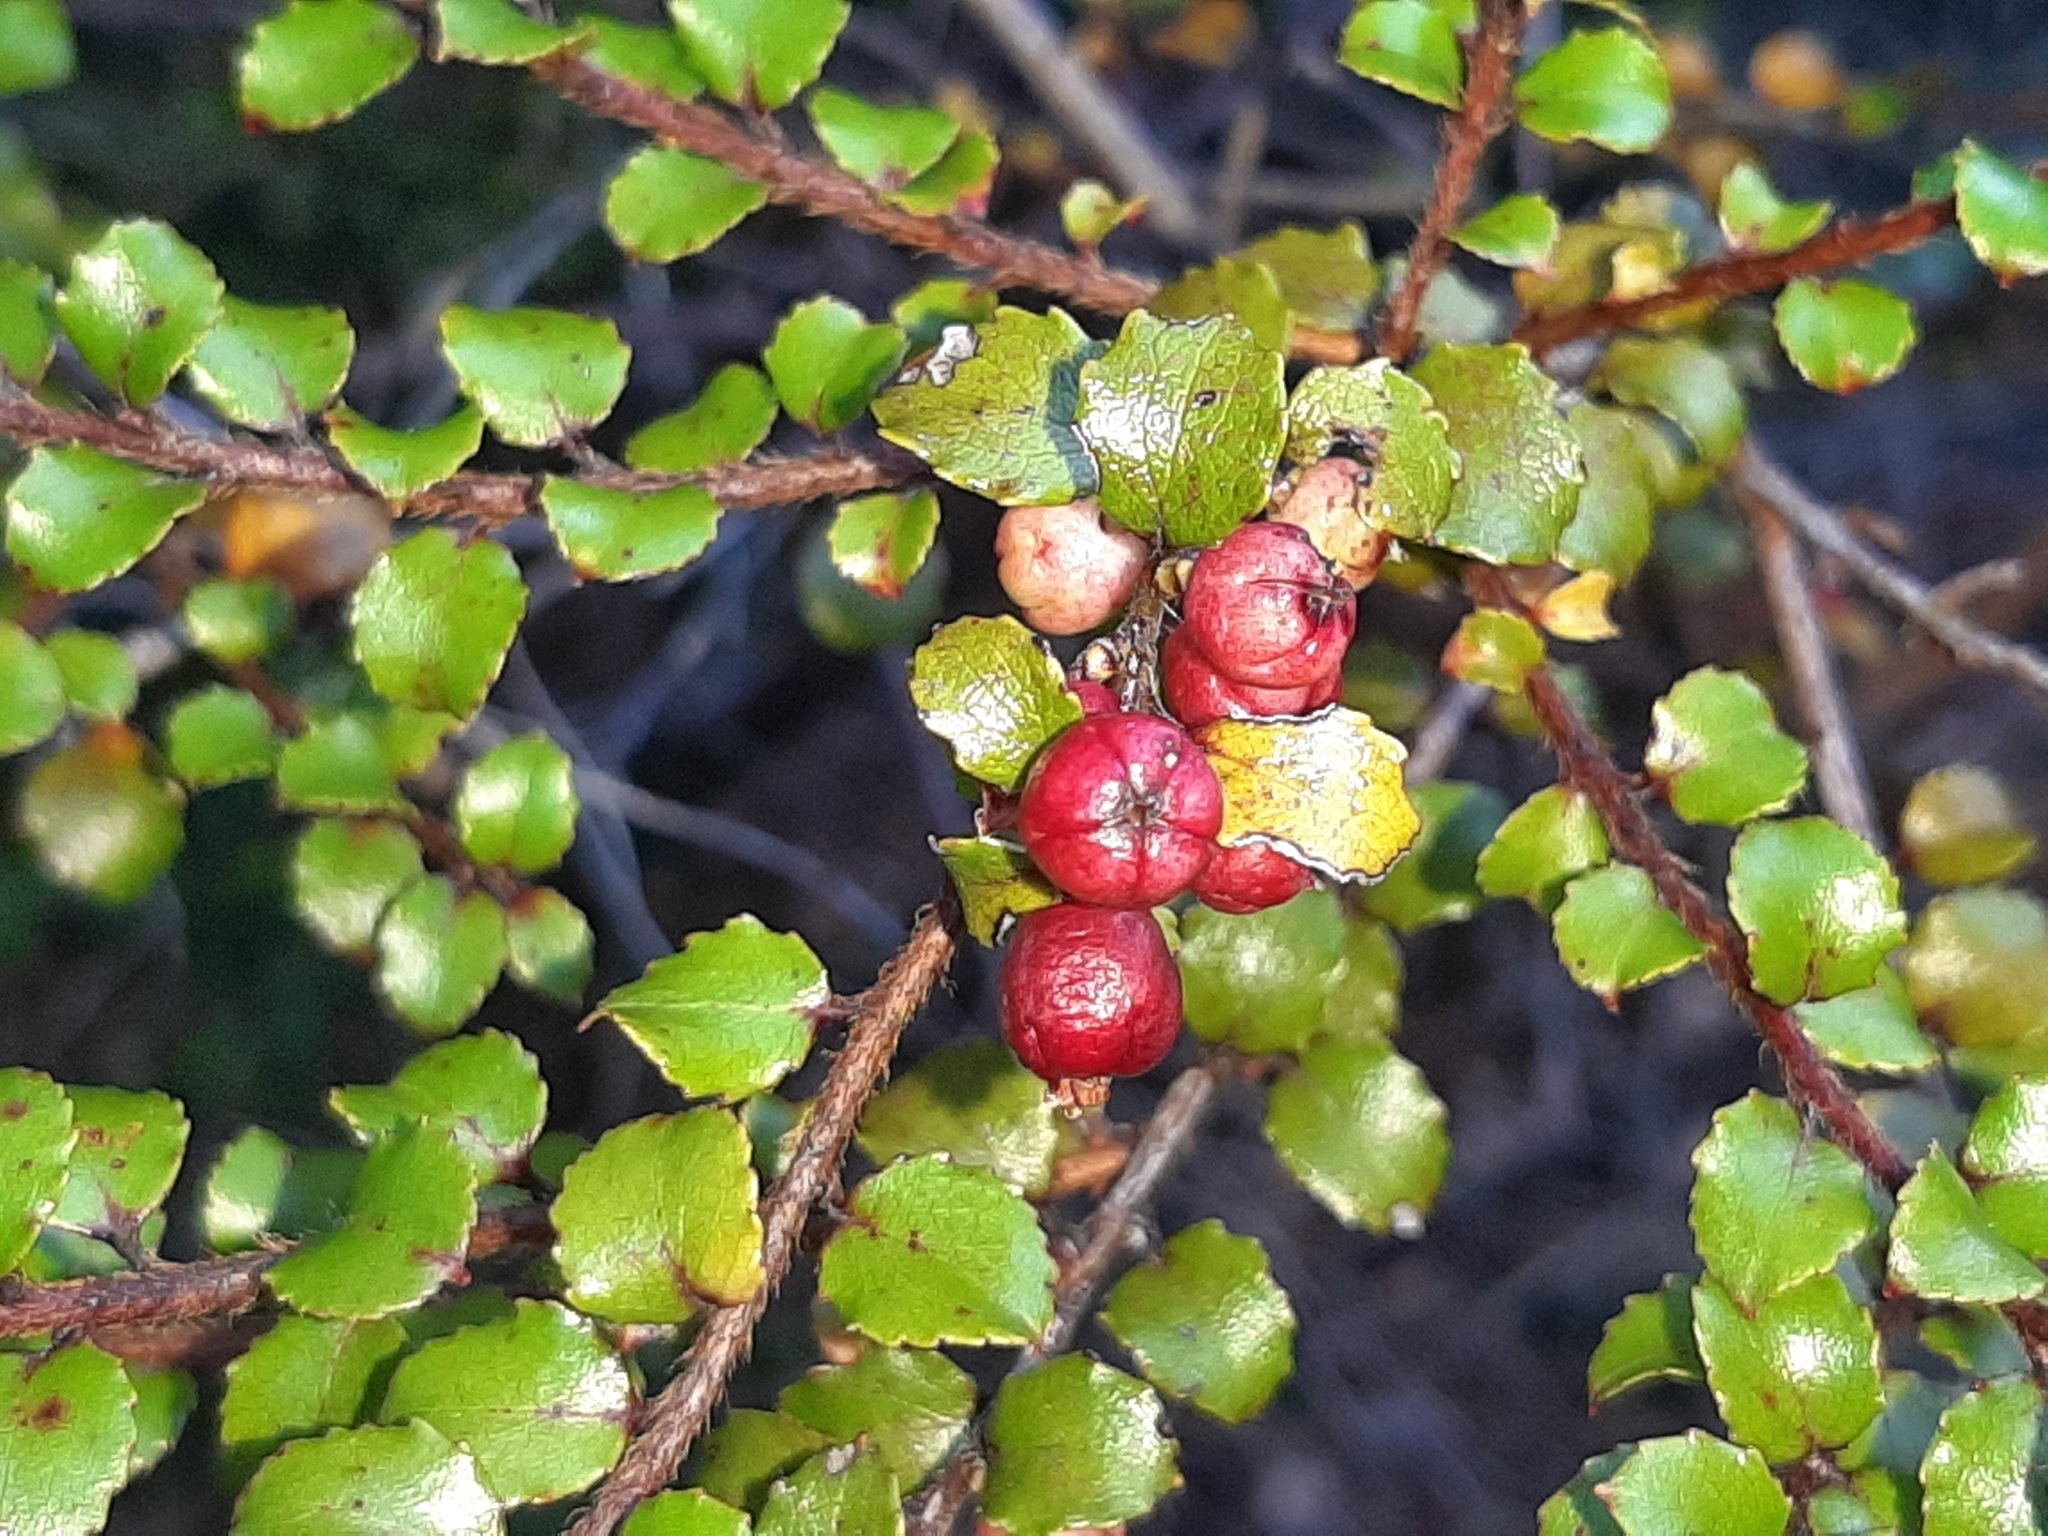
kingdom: Plantae
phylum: Tracheophyta
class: Magnoliopsida
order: Ericales
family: Ericaceae
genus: Gaultheria
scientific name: Gaultheria antipoda
